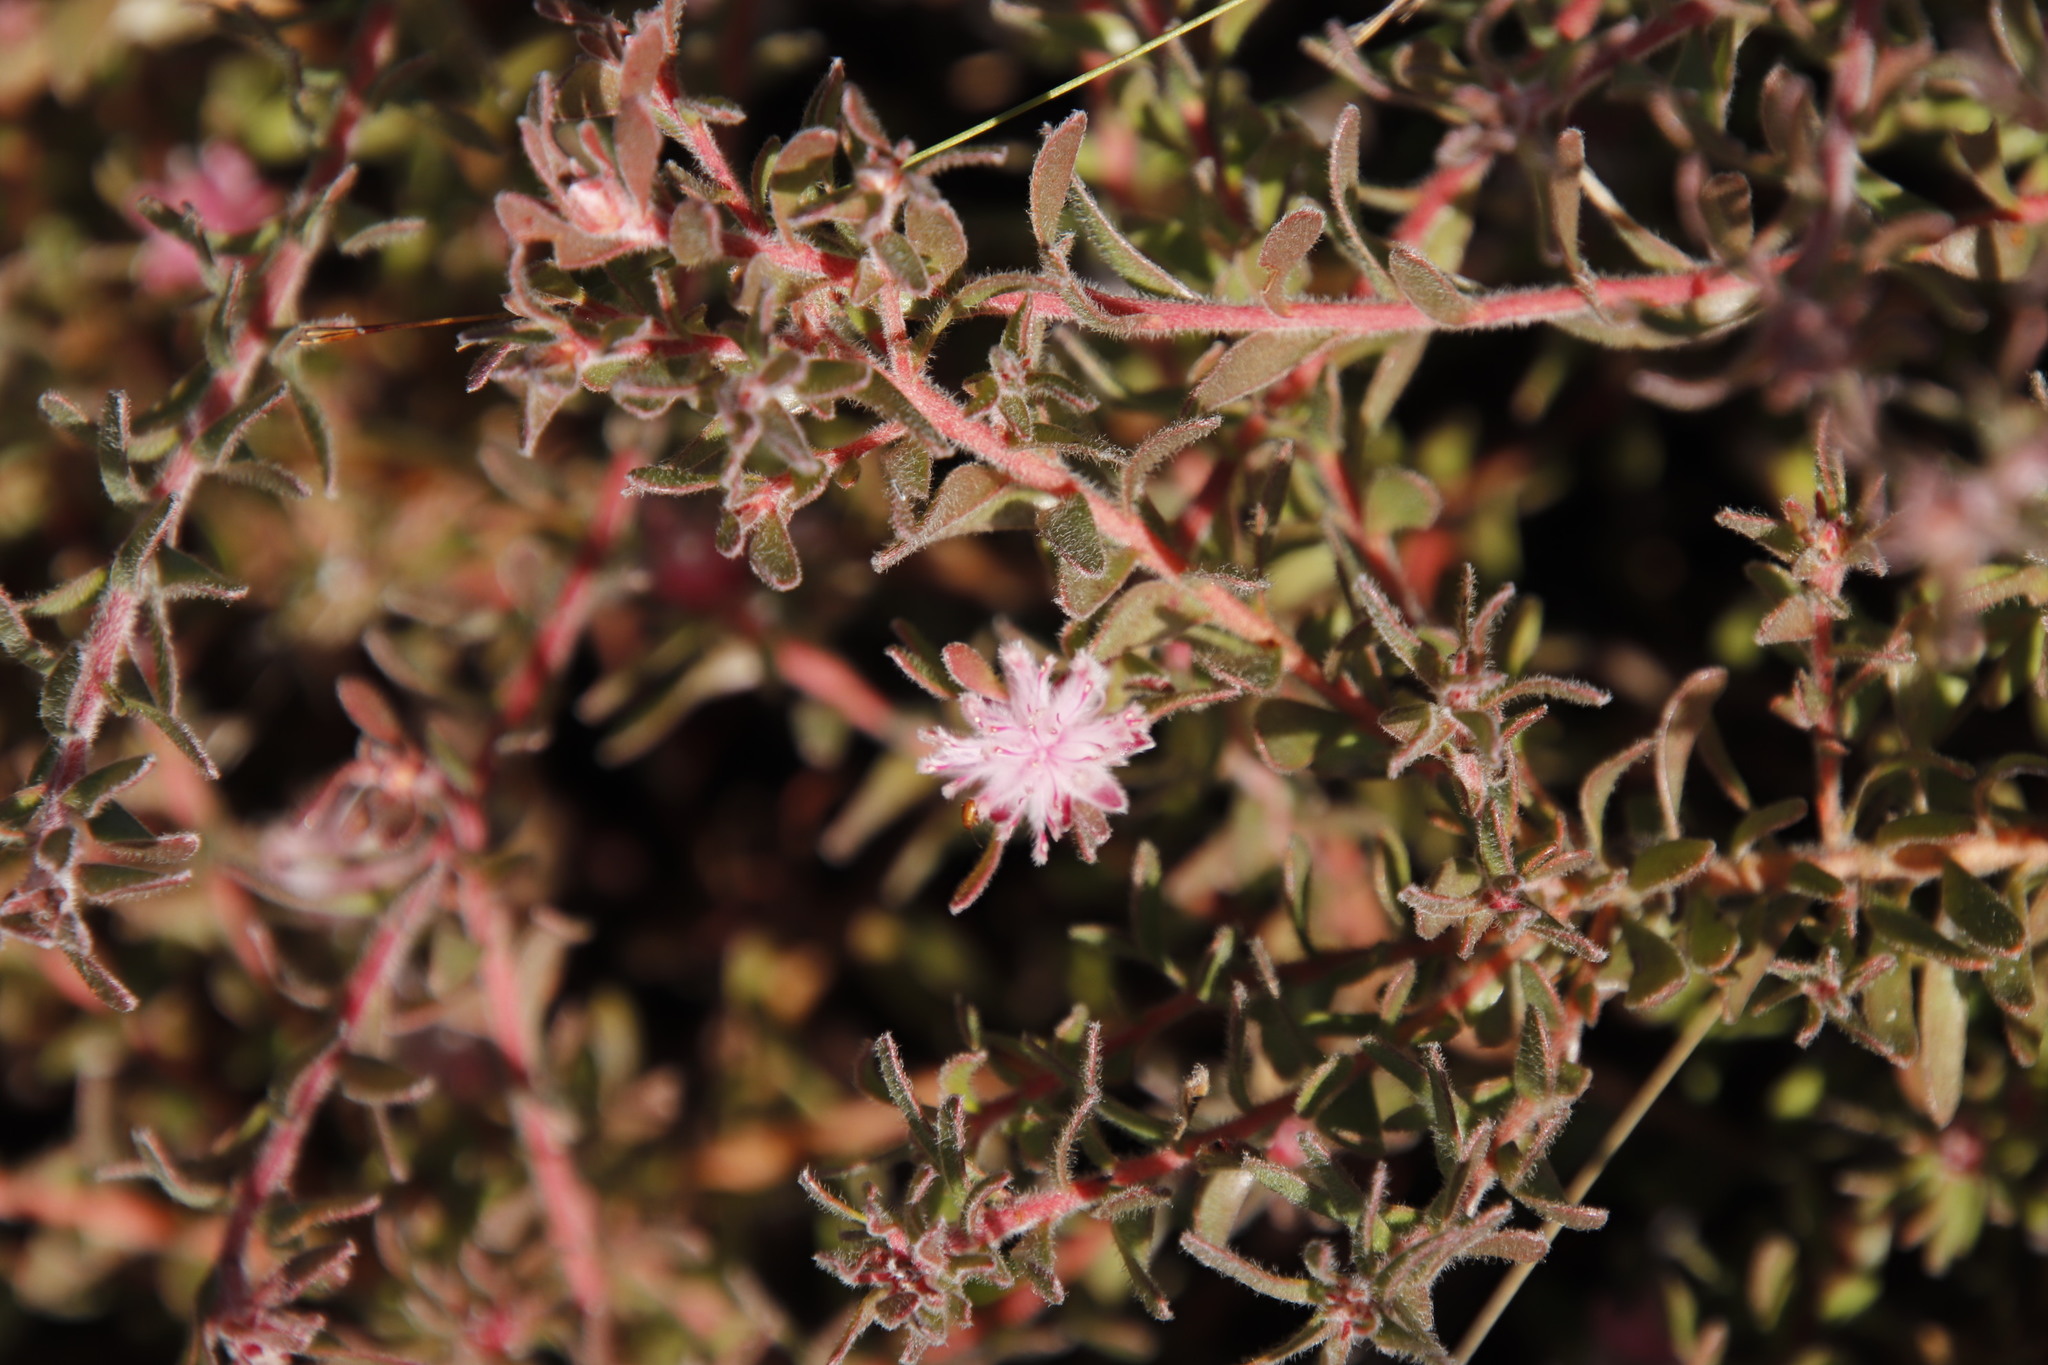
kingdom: Plantae
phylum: Tracheophyta
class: Magnoliopsida
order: Proteales
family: Proteaceae
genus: Diastella
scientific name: Diastella divaricata
